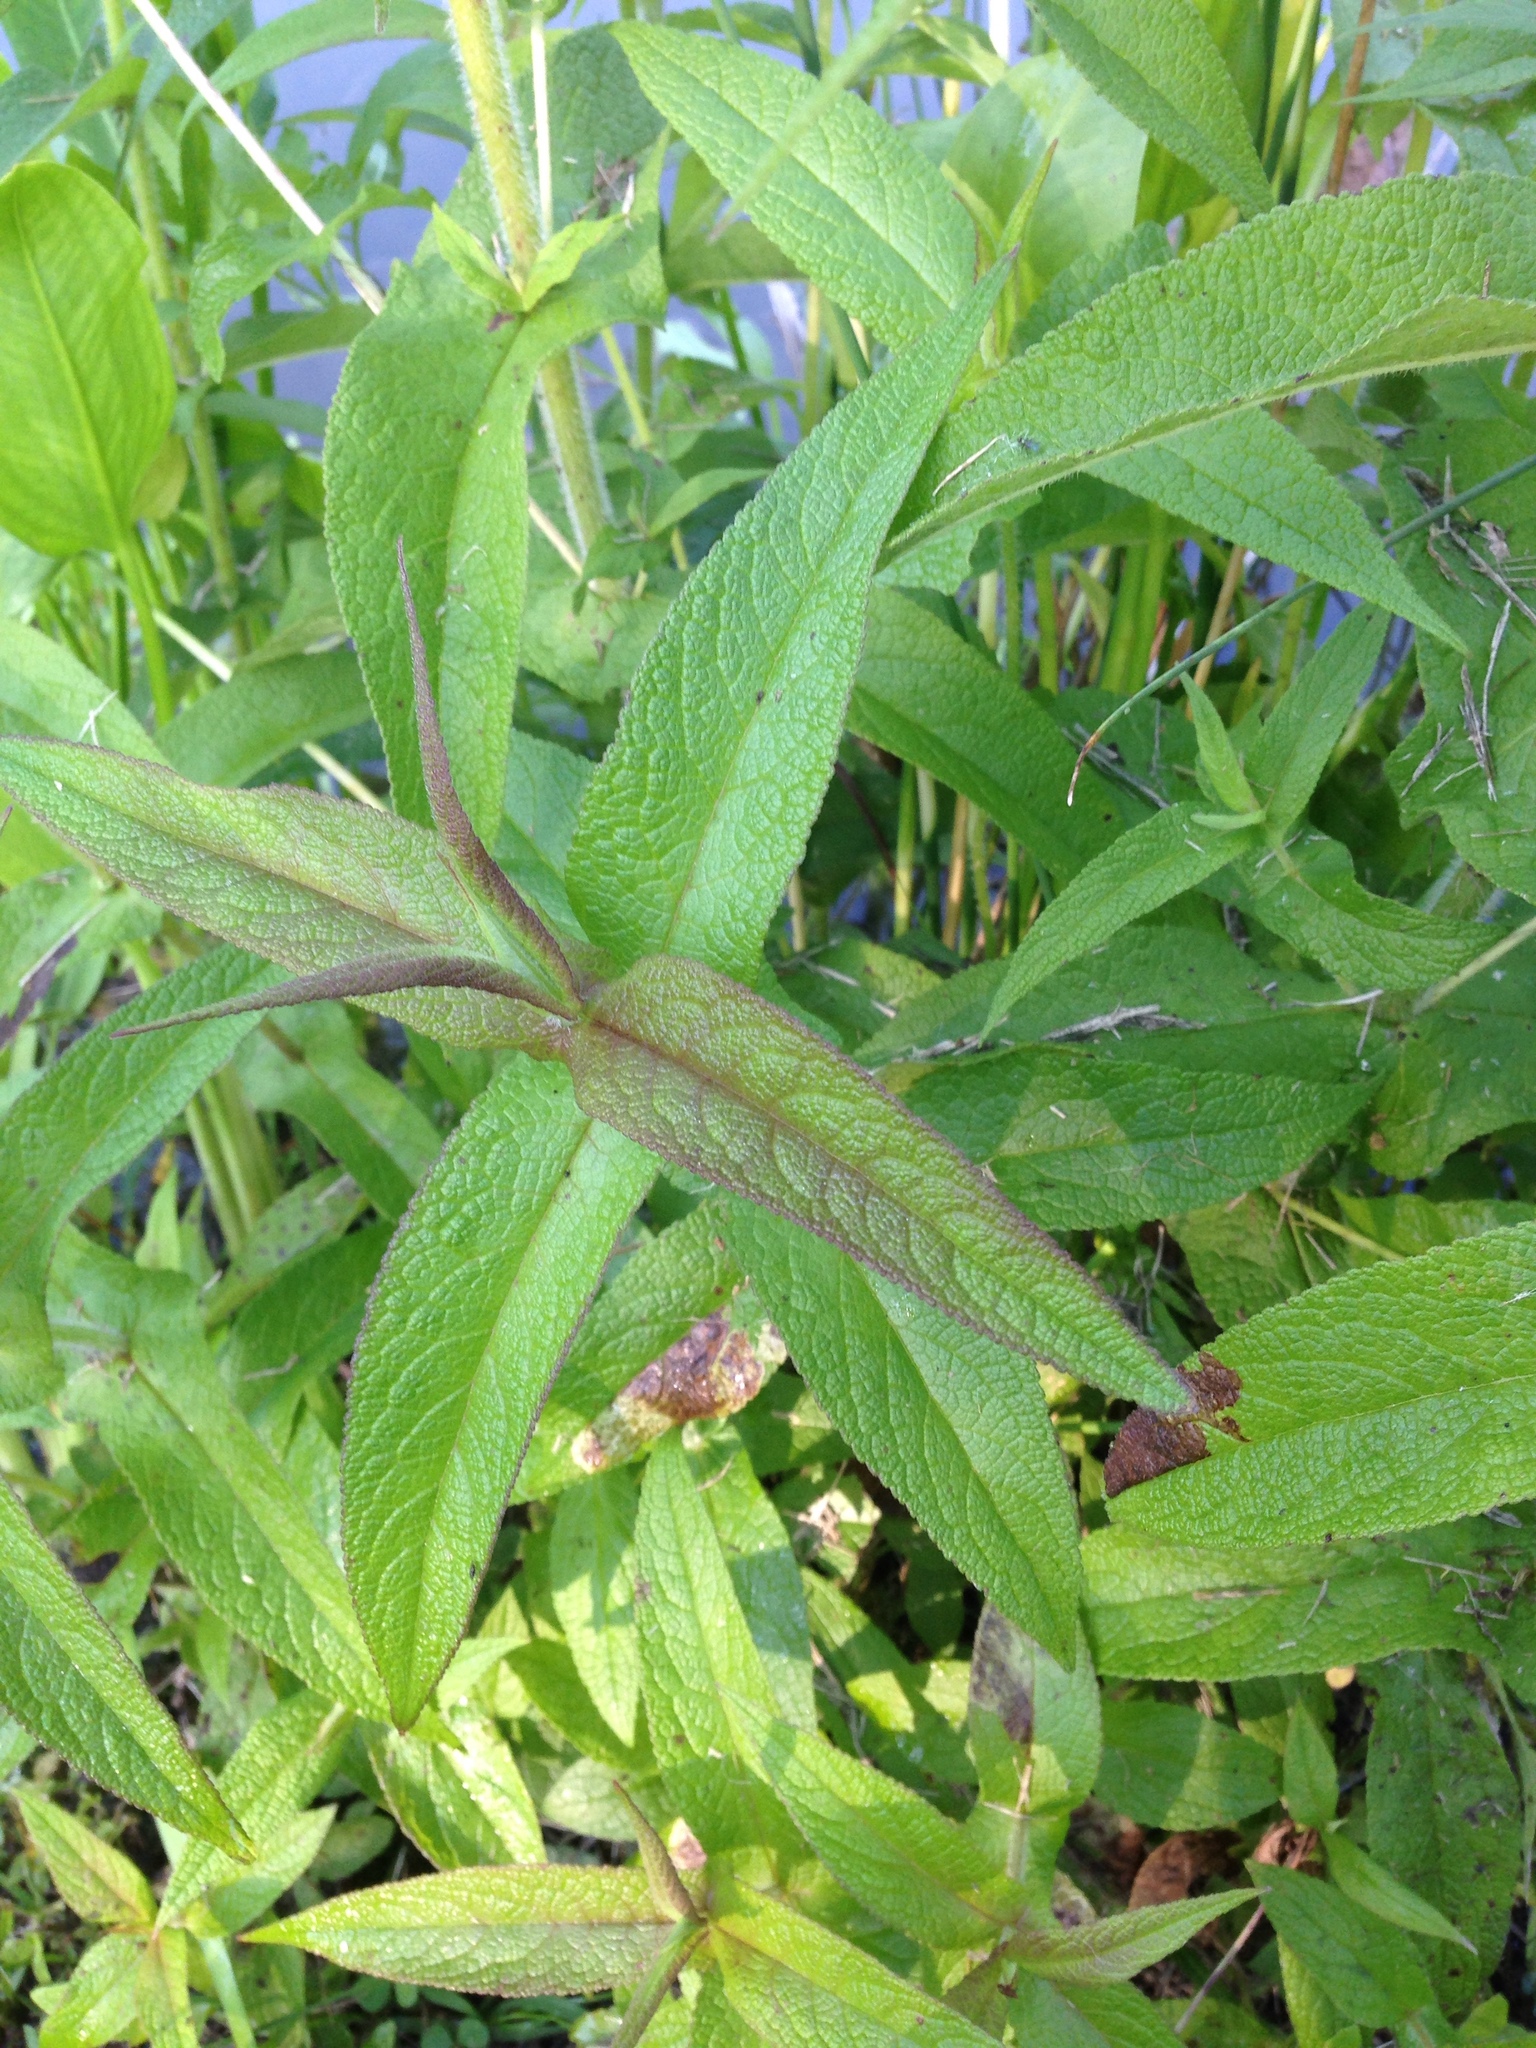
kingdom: Plantae
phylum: Tracheophyta
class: Magnoliopsida
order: Asterales
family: Asteraceae
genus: Eupatorium
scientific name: Eupatorium perfoliatum
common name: Boneset
